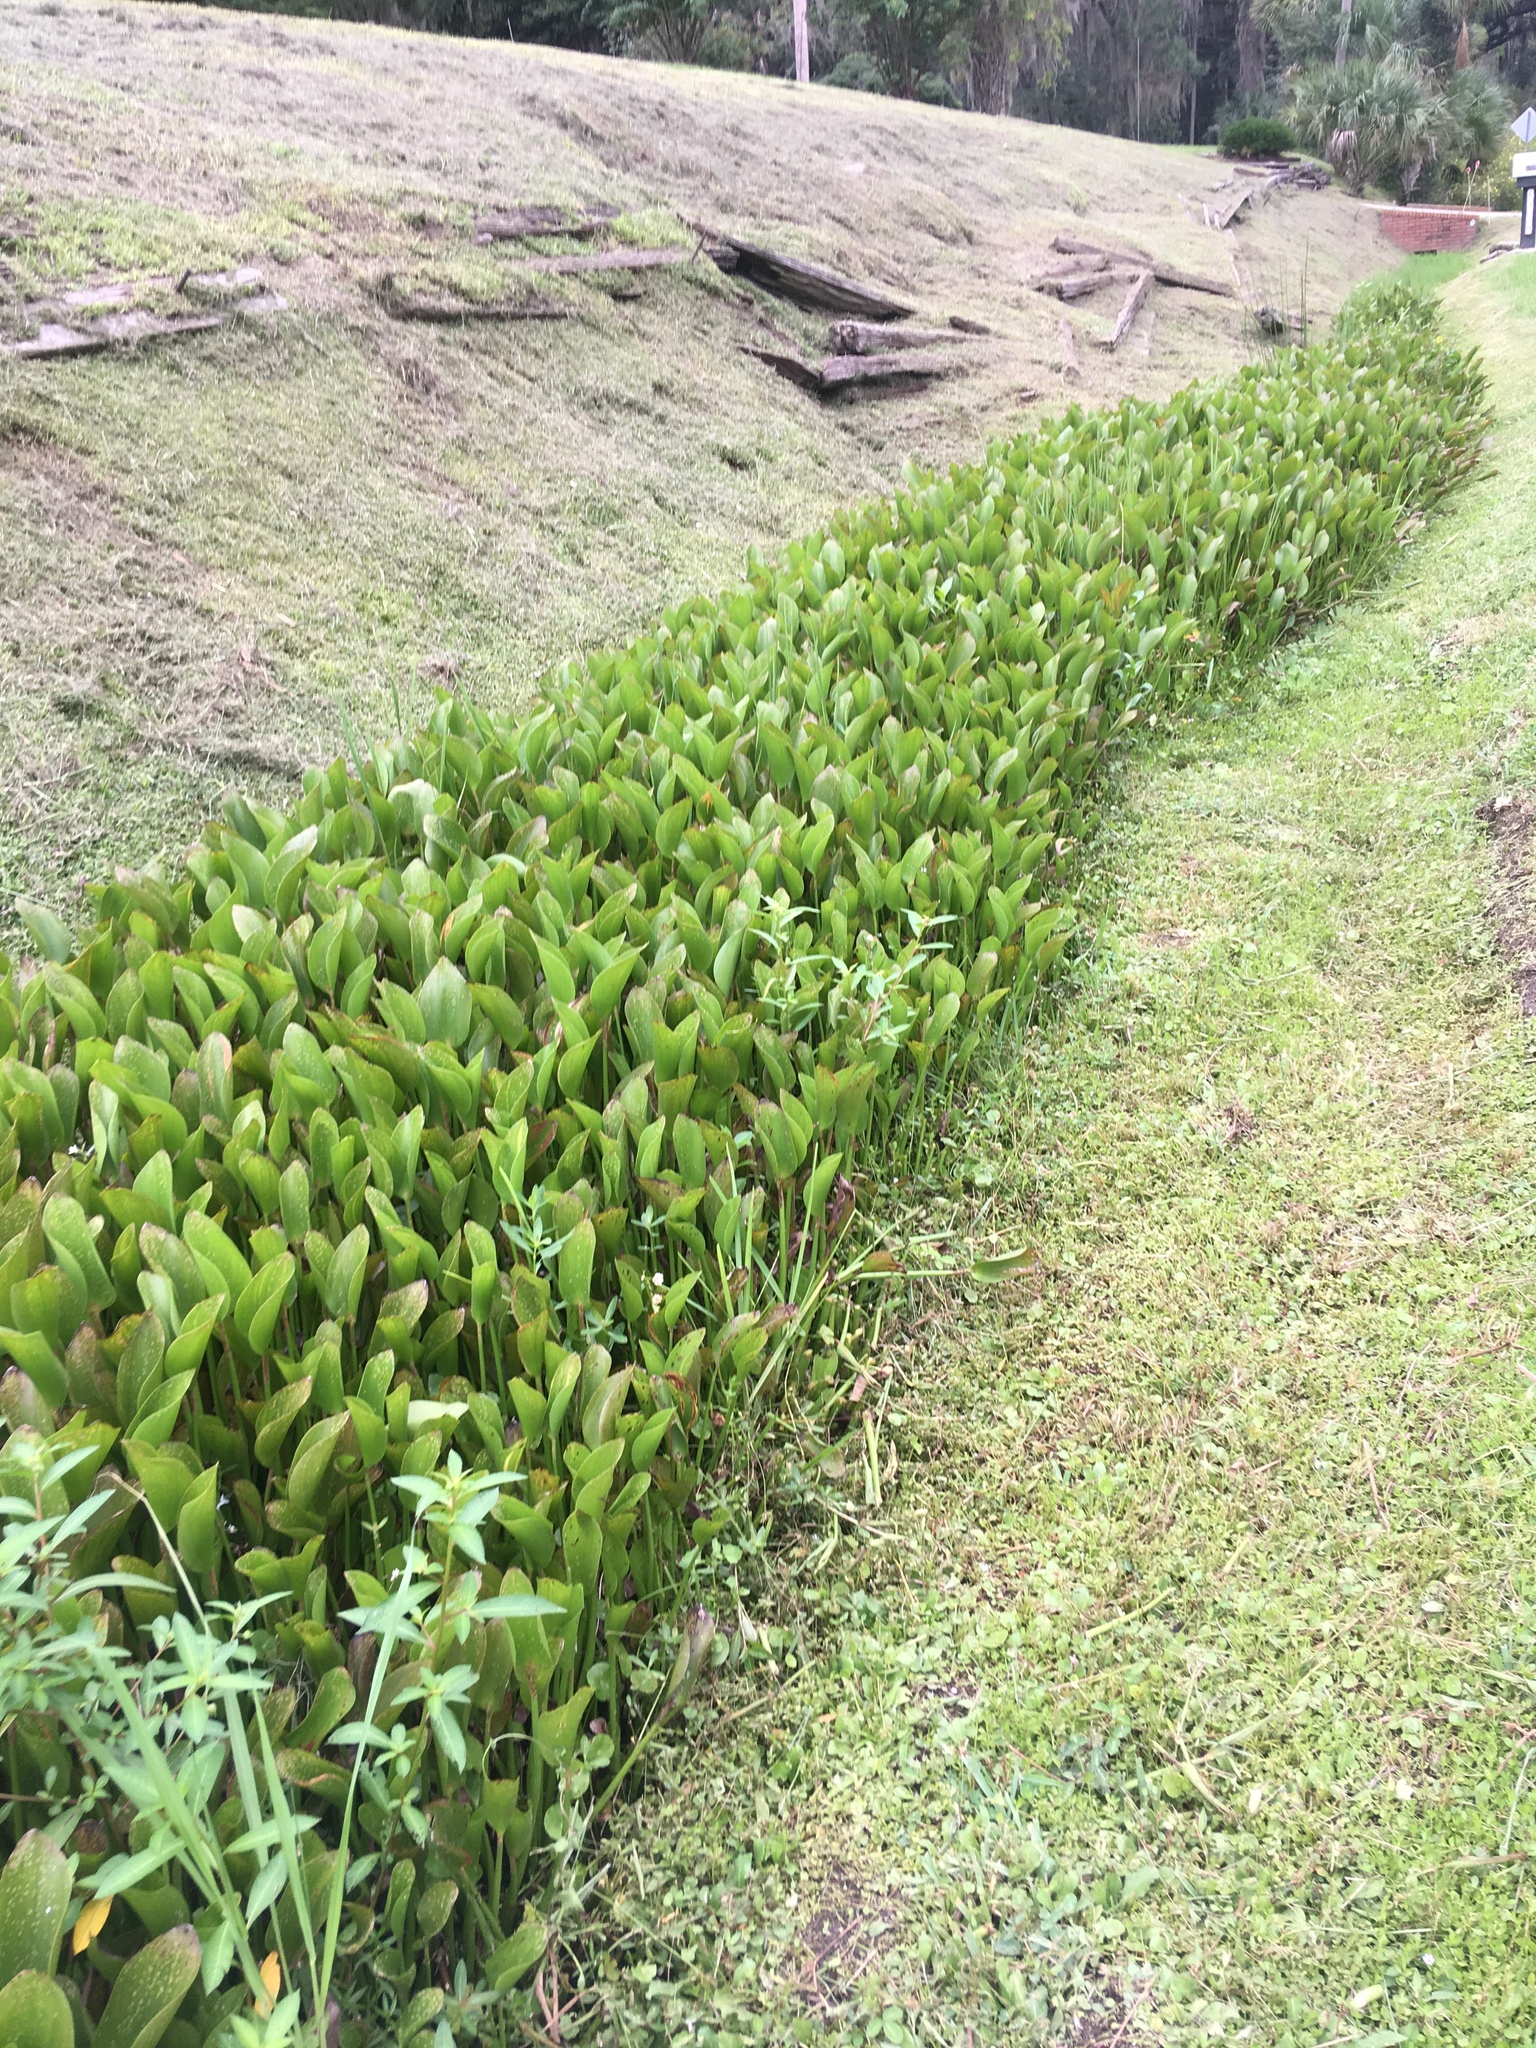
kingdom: Plantae
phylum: Tracheophyta
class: Liliopsida
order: Commelinales
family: Pontederiaceae
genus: Pontederia
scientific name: Pontederia crassipes
